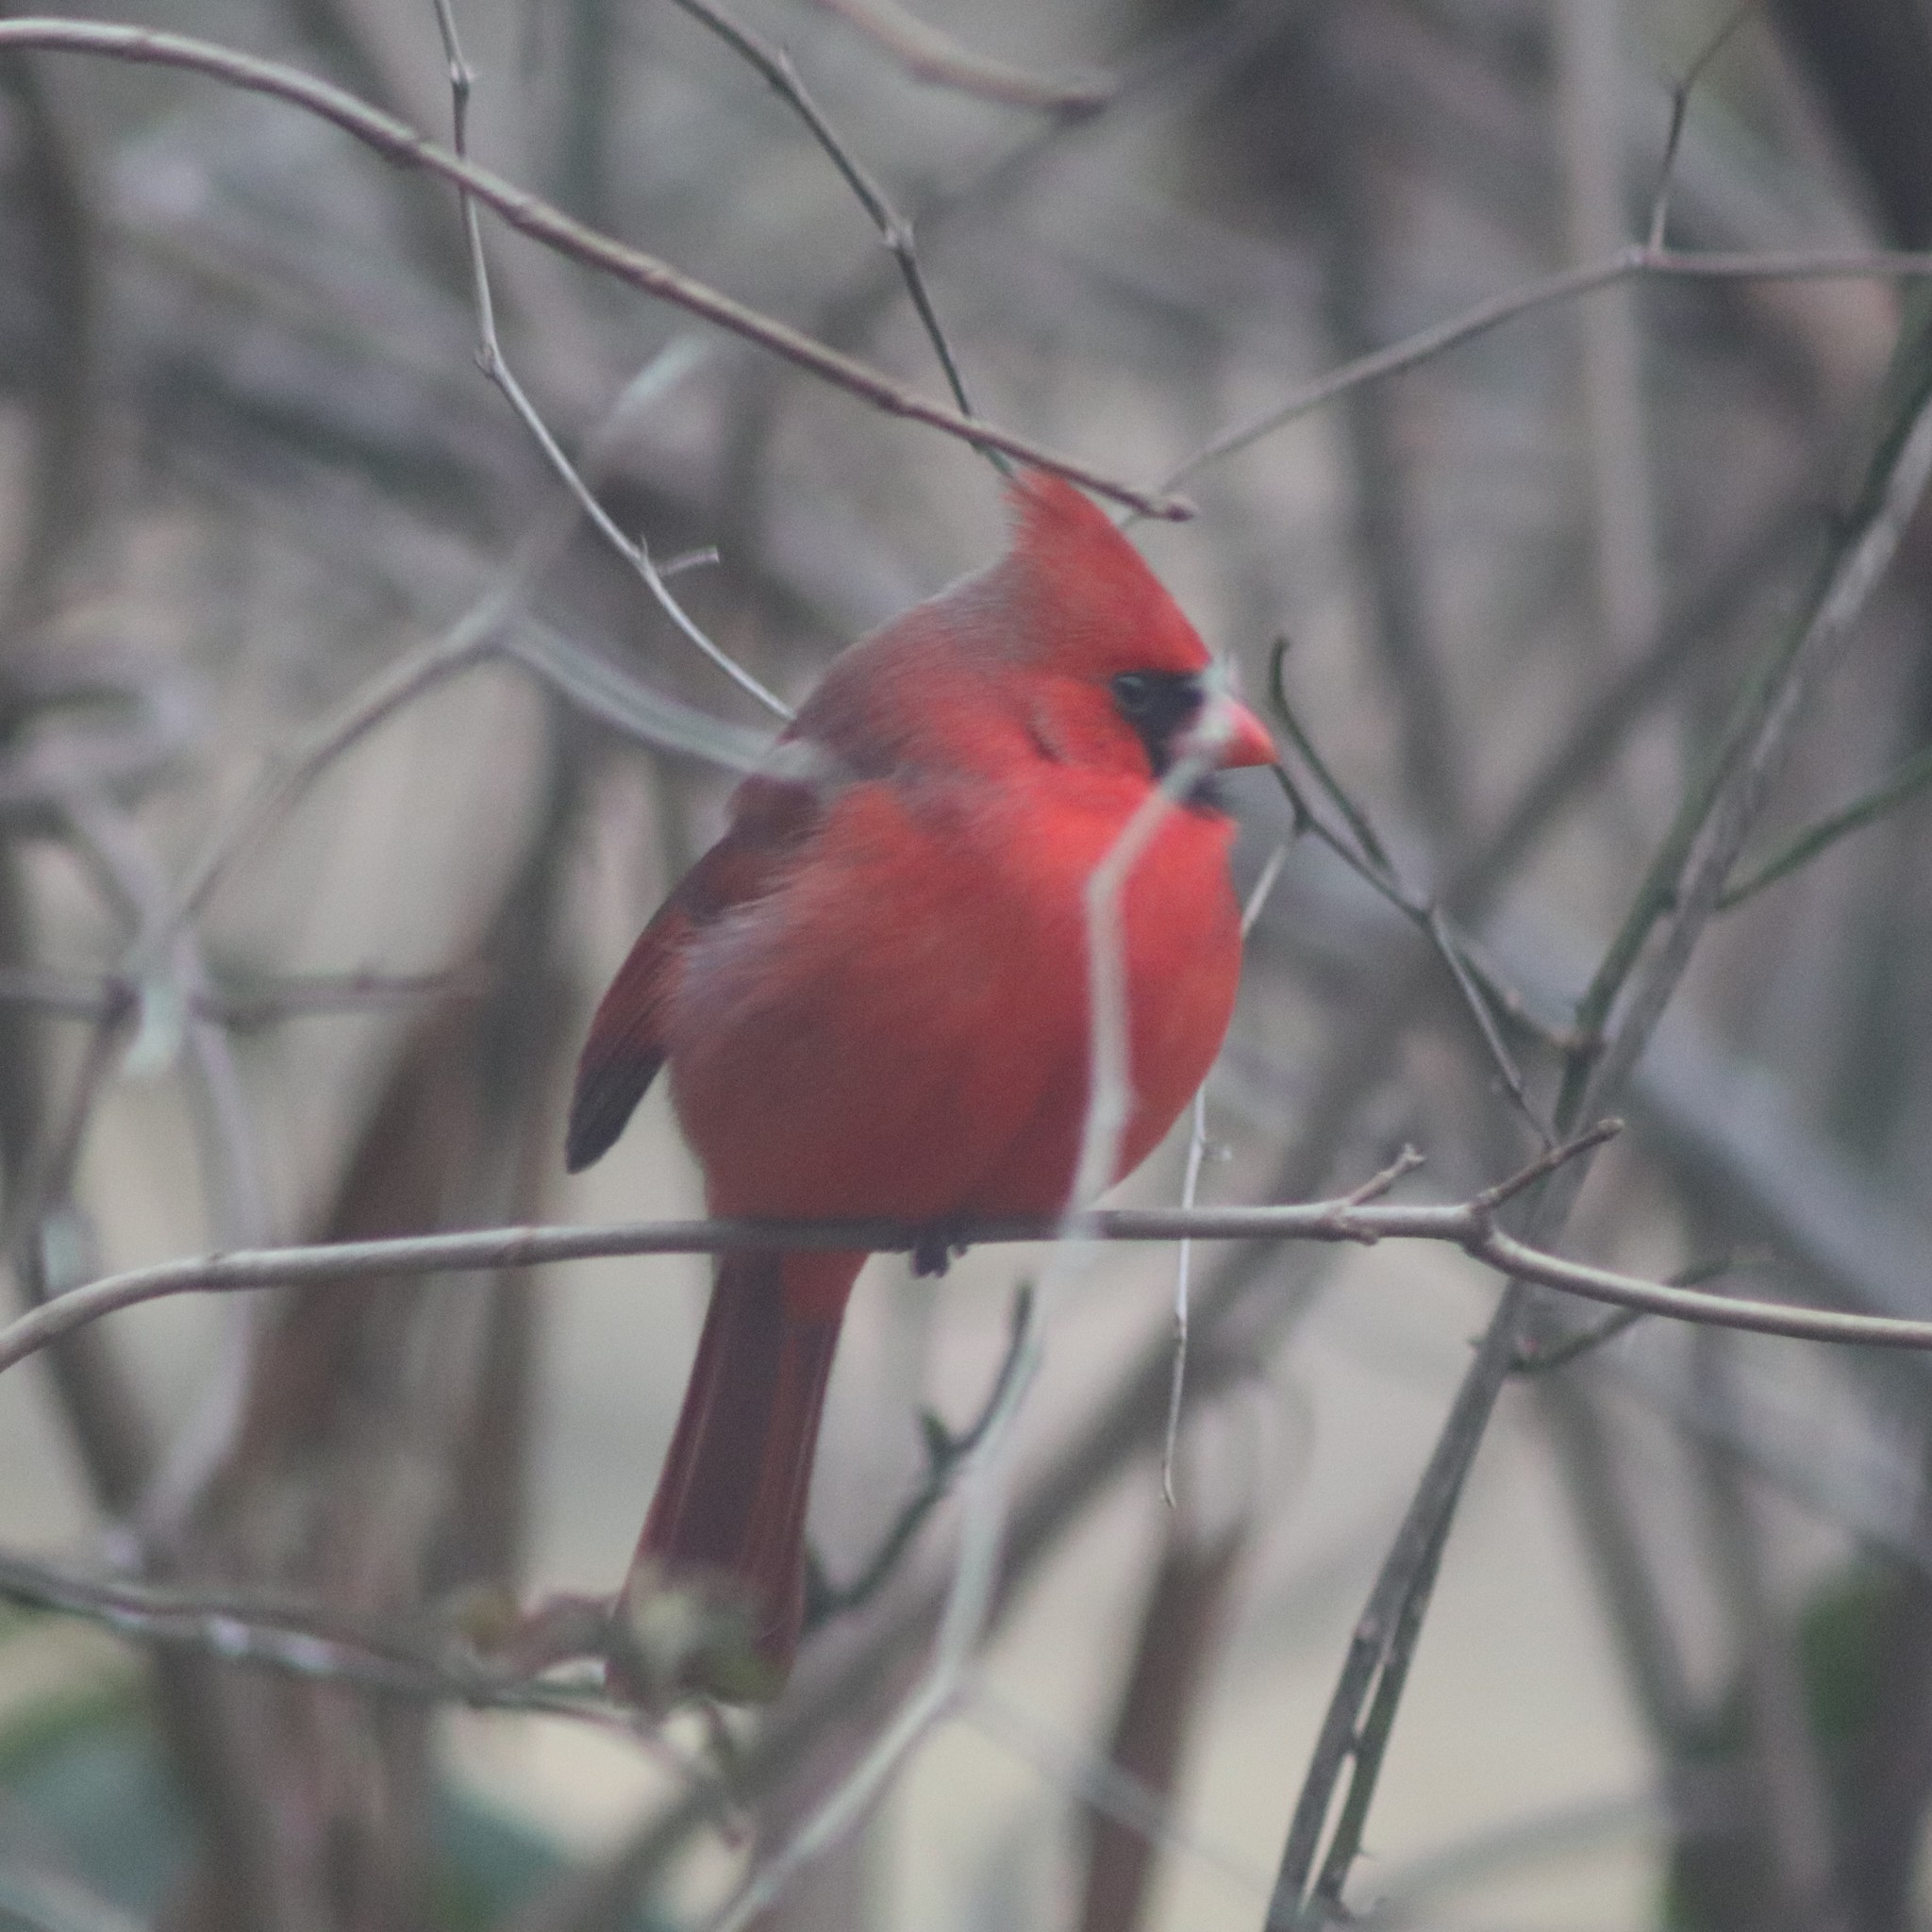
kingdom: Animalia
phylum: Chordata
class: Aves
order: Passeriformes
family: Cardinalidae
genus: Cardinalis
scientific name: Cardinalis cardinalis
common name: Northern cardinal
